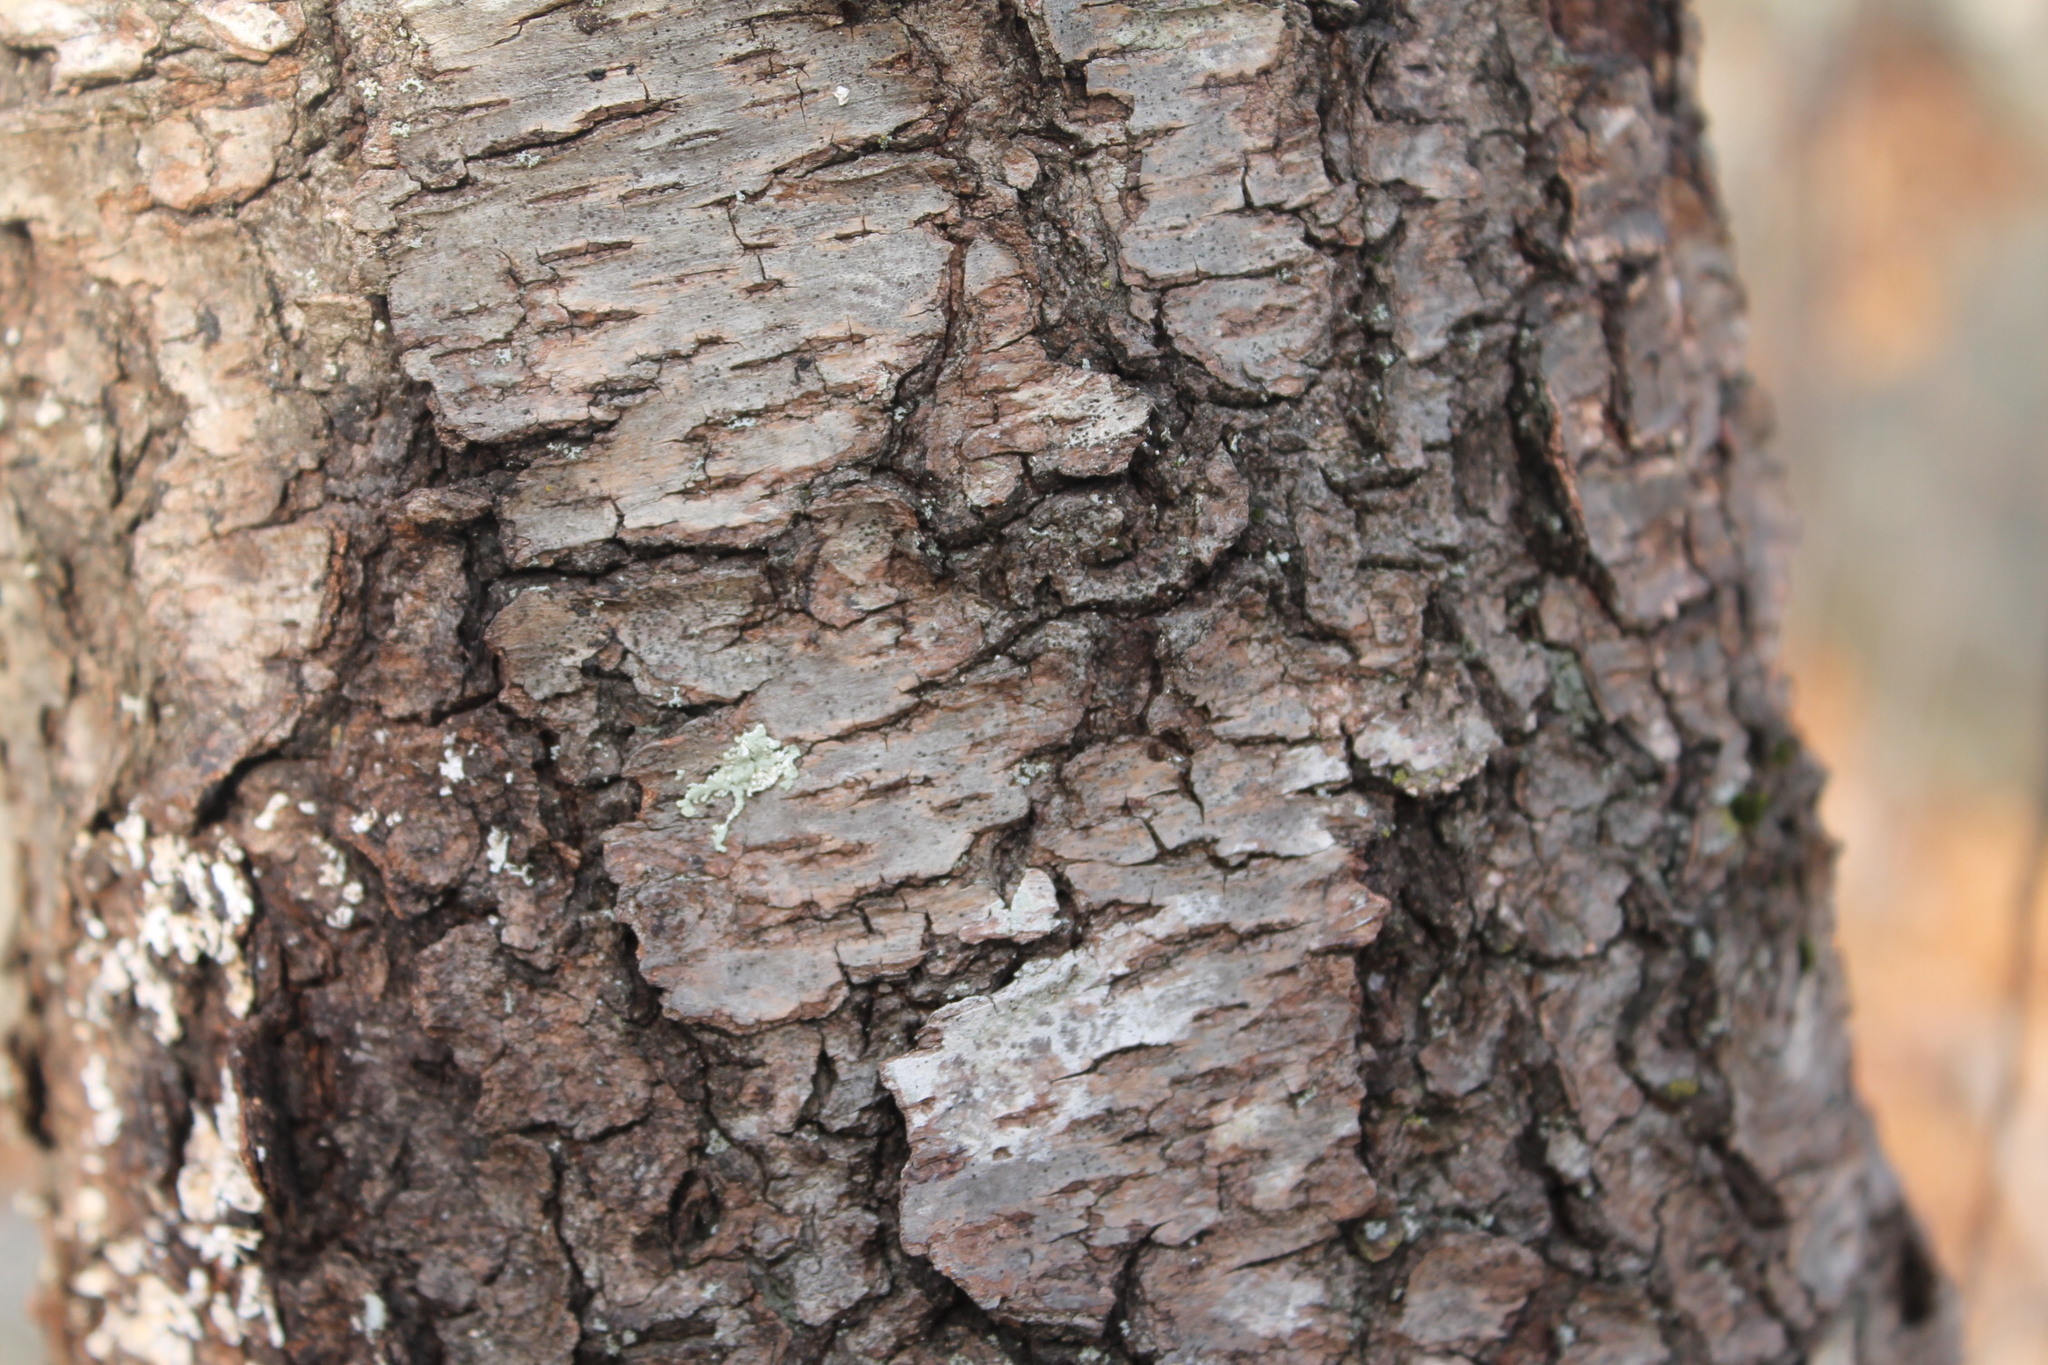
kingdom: Plantae
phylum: Tracheophyta
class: Magnoliopsida
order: Rosales
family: Rosaceae
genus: Prunus
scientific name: Prunus serotina
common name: Black cherry
